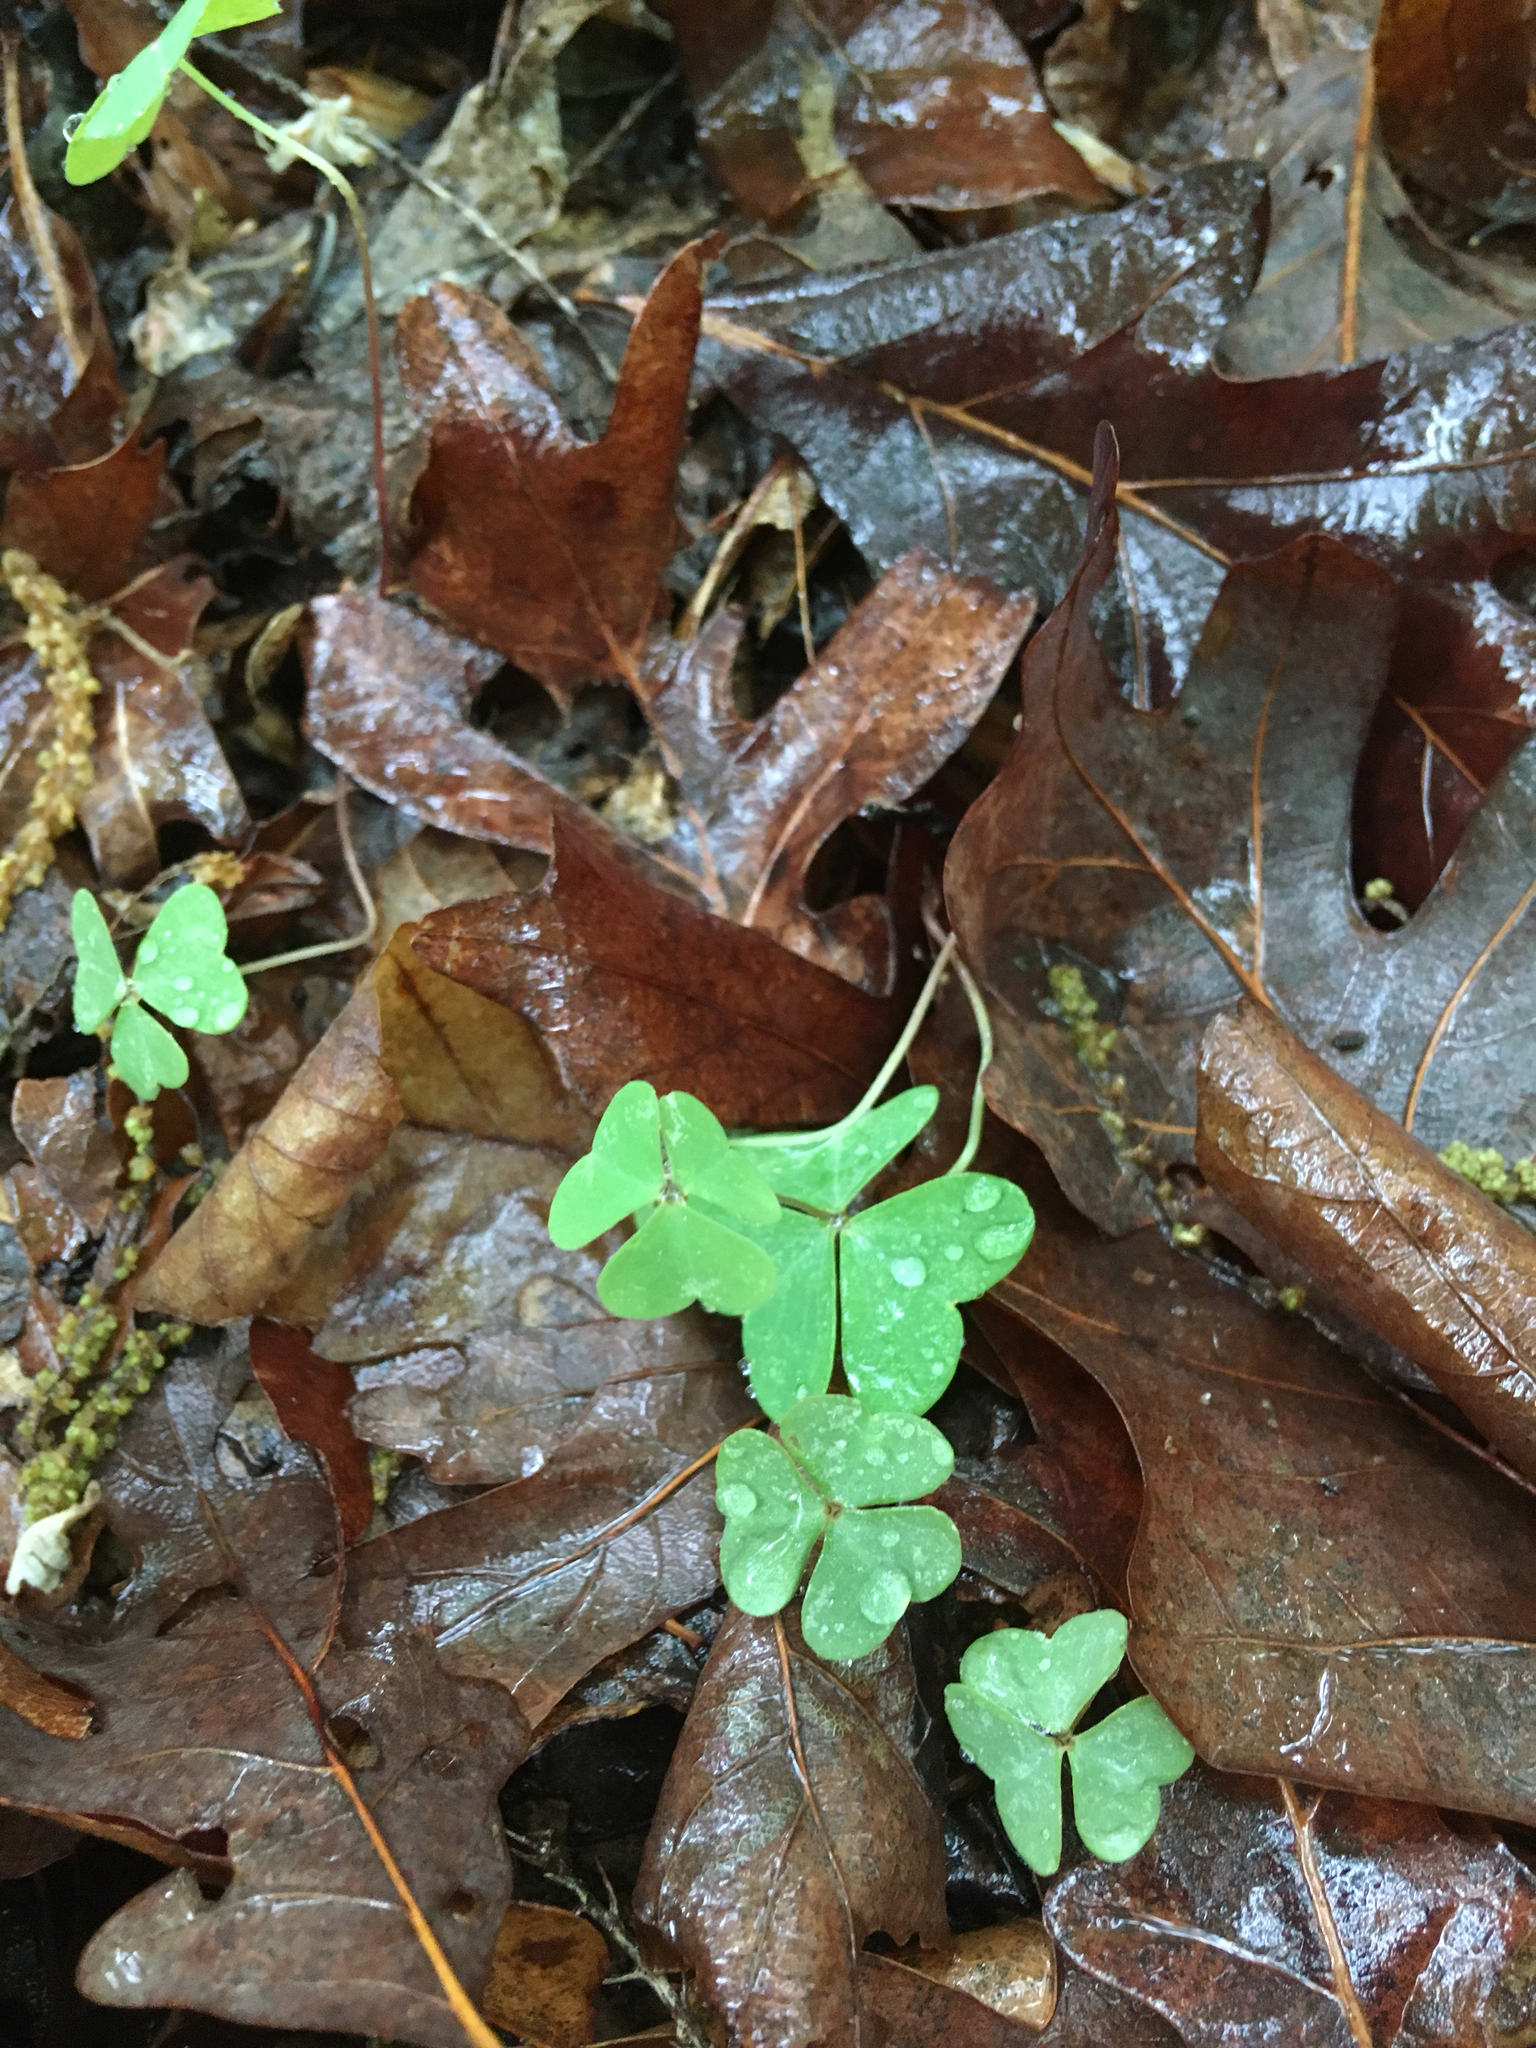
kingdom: Plantae
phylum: Tracheophyta
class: Magnoliopsida
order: Oxalidales
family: Oxalidaceae
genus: Oxalis
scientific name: Oxalis violacea
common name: Violet wood-sorrel
